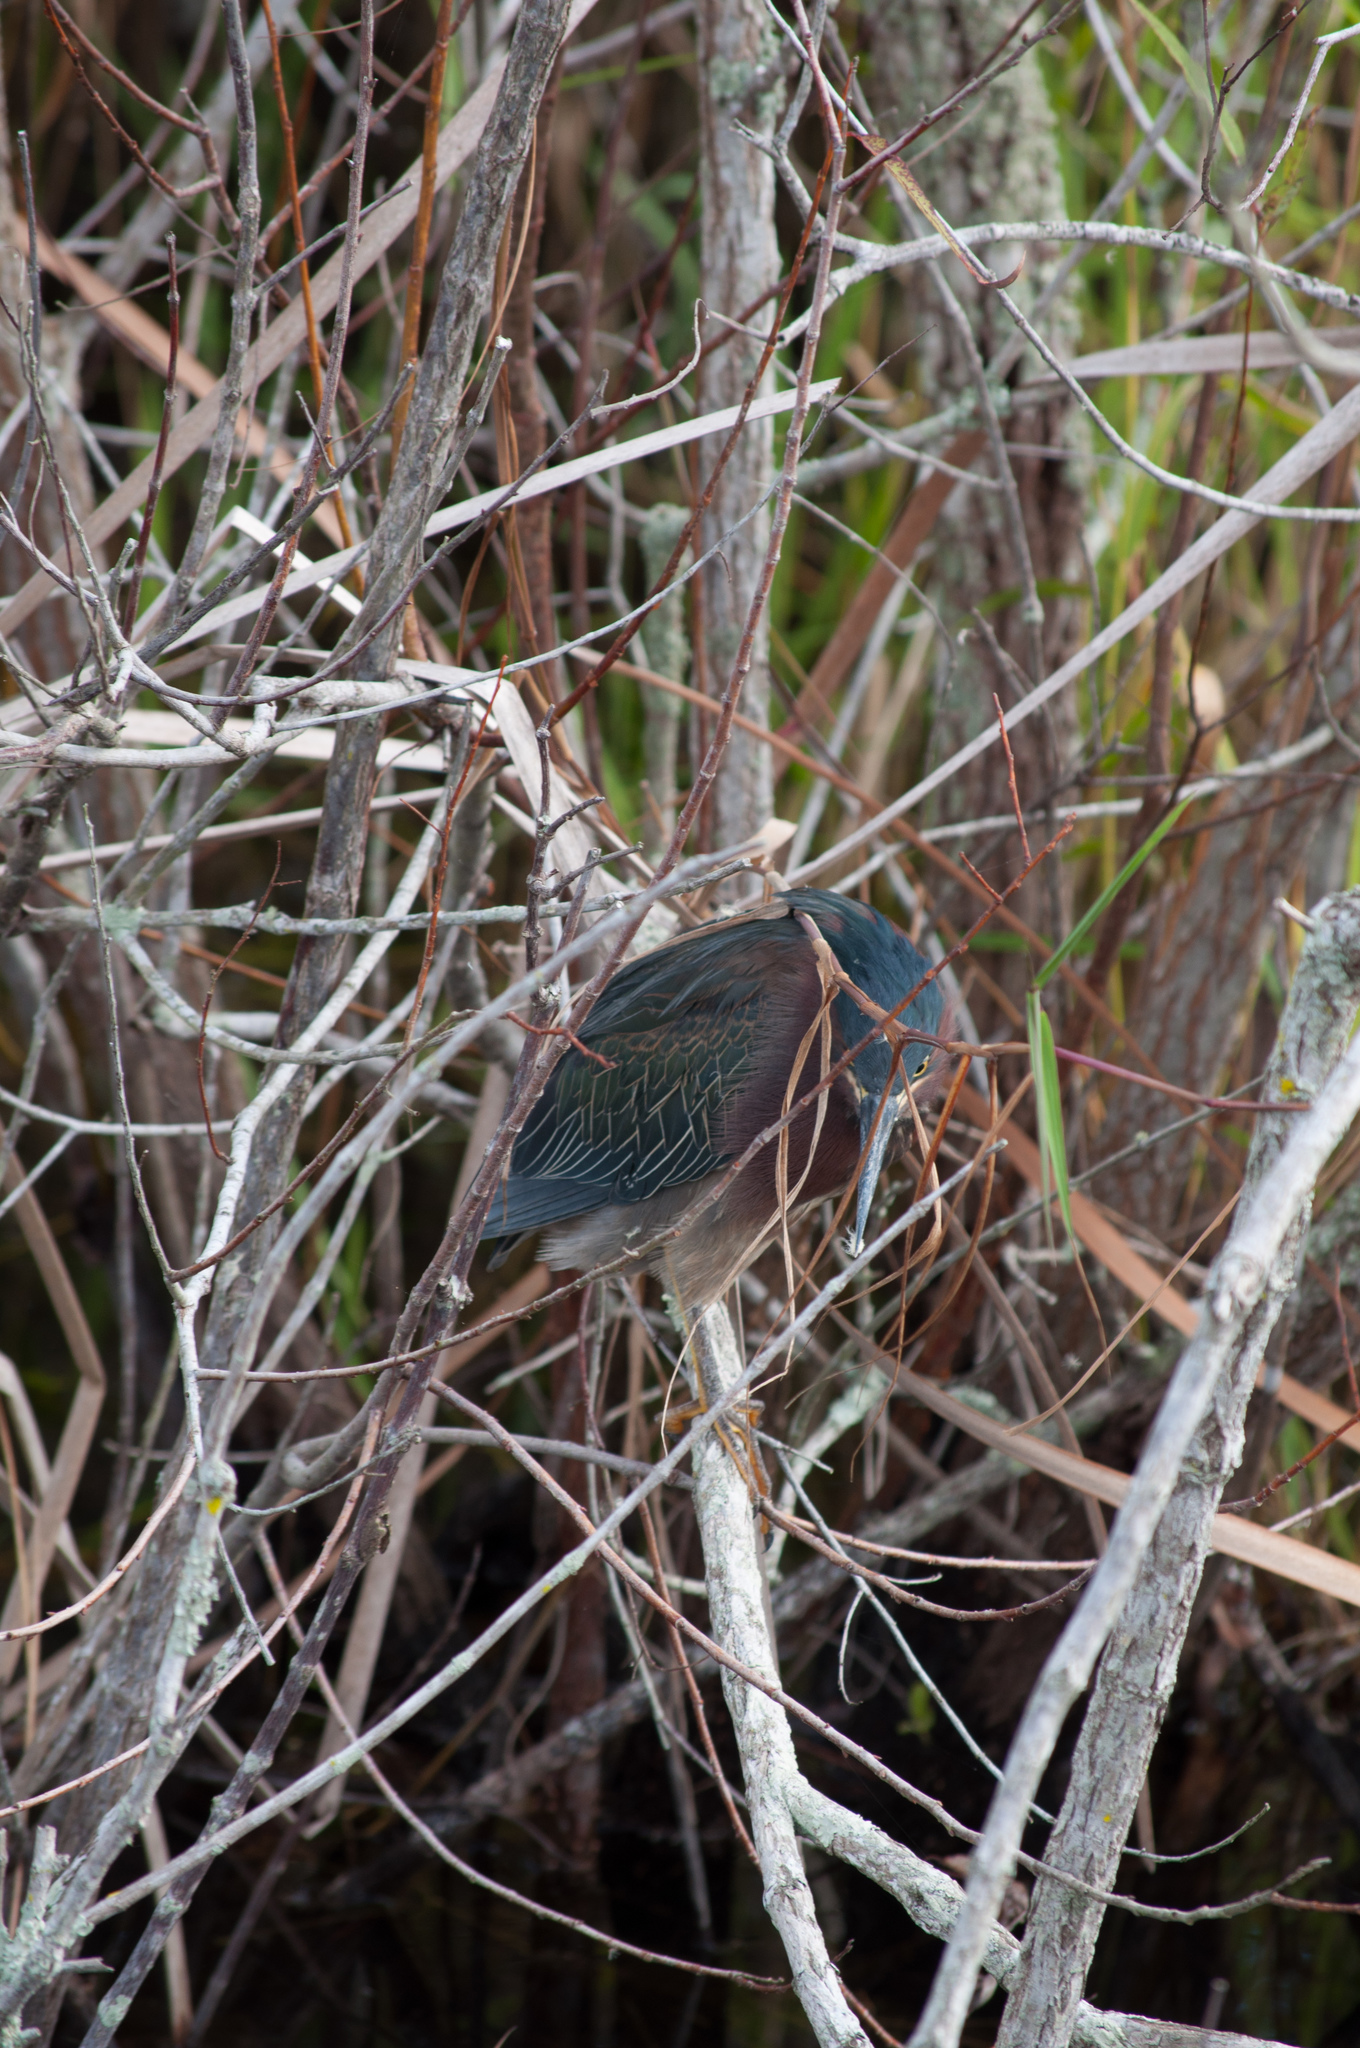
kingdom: Animalia
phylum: Chordata
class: Aves
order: Pelecaniformes
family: Ardeidae
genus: Butorides
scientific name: Butorides virescens
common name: Green heron
